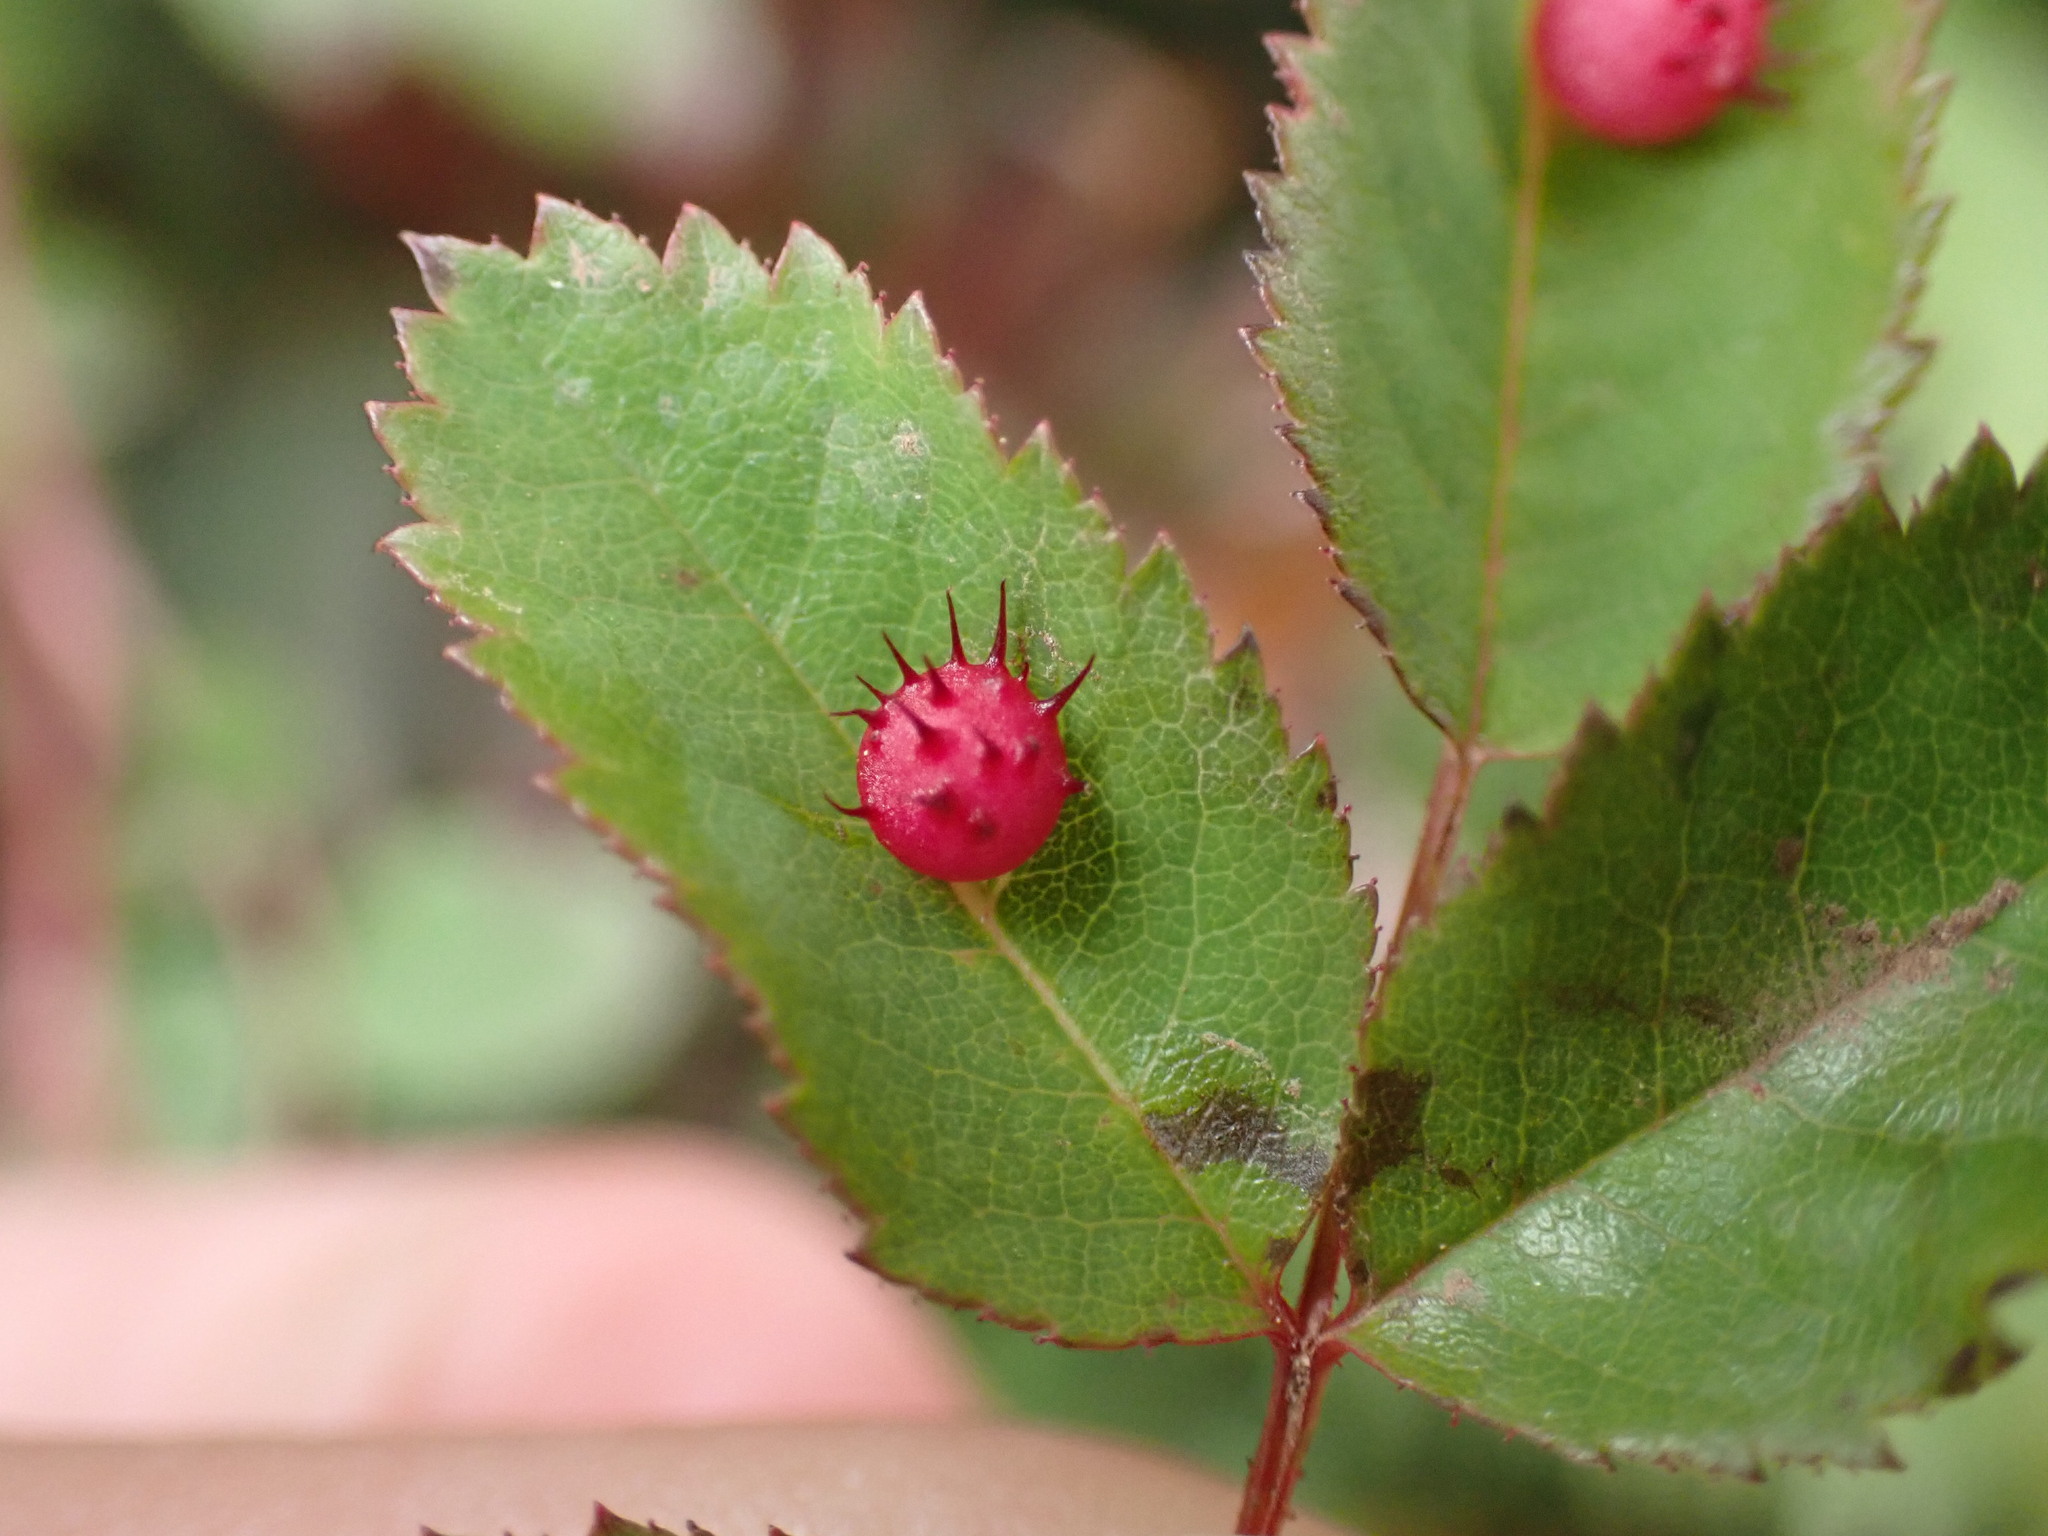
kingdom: Animalia
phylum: Arthropoda
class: Insecta
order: Hymenoptera
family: Cynipidae
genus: Diplolepis
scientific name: Diplolepis polita
